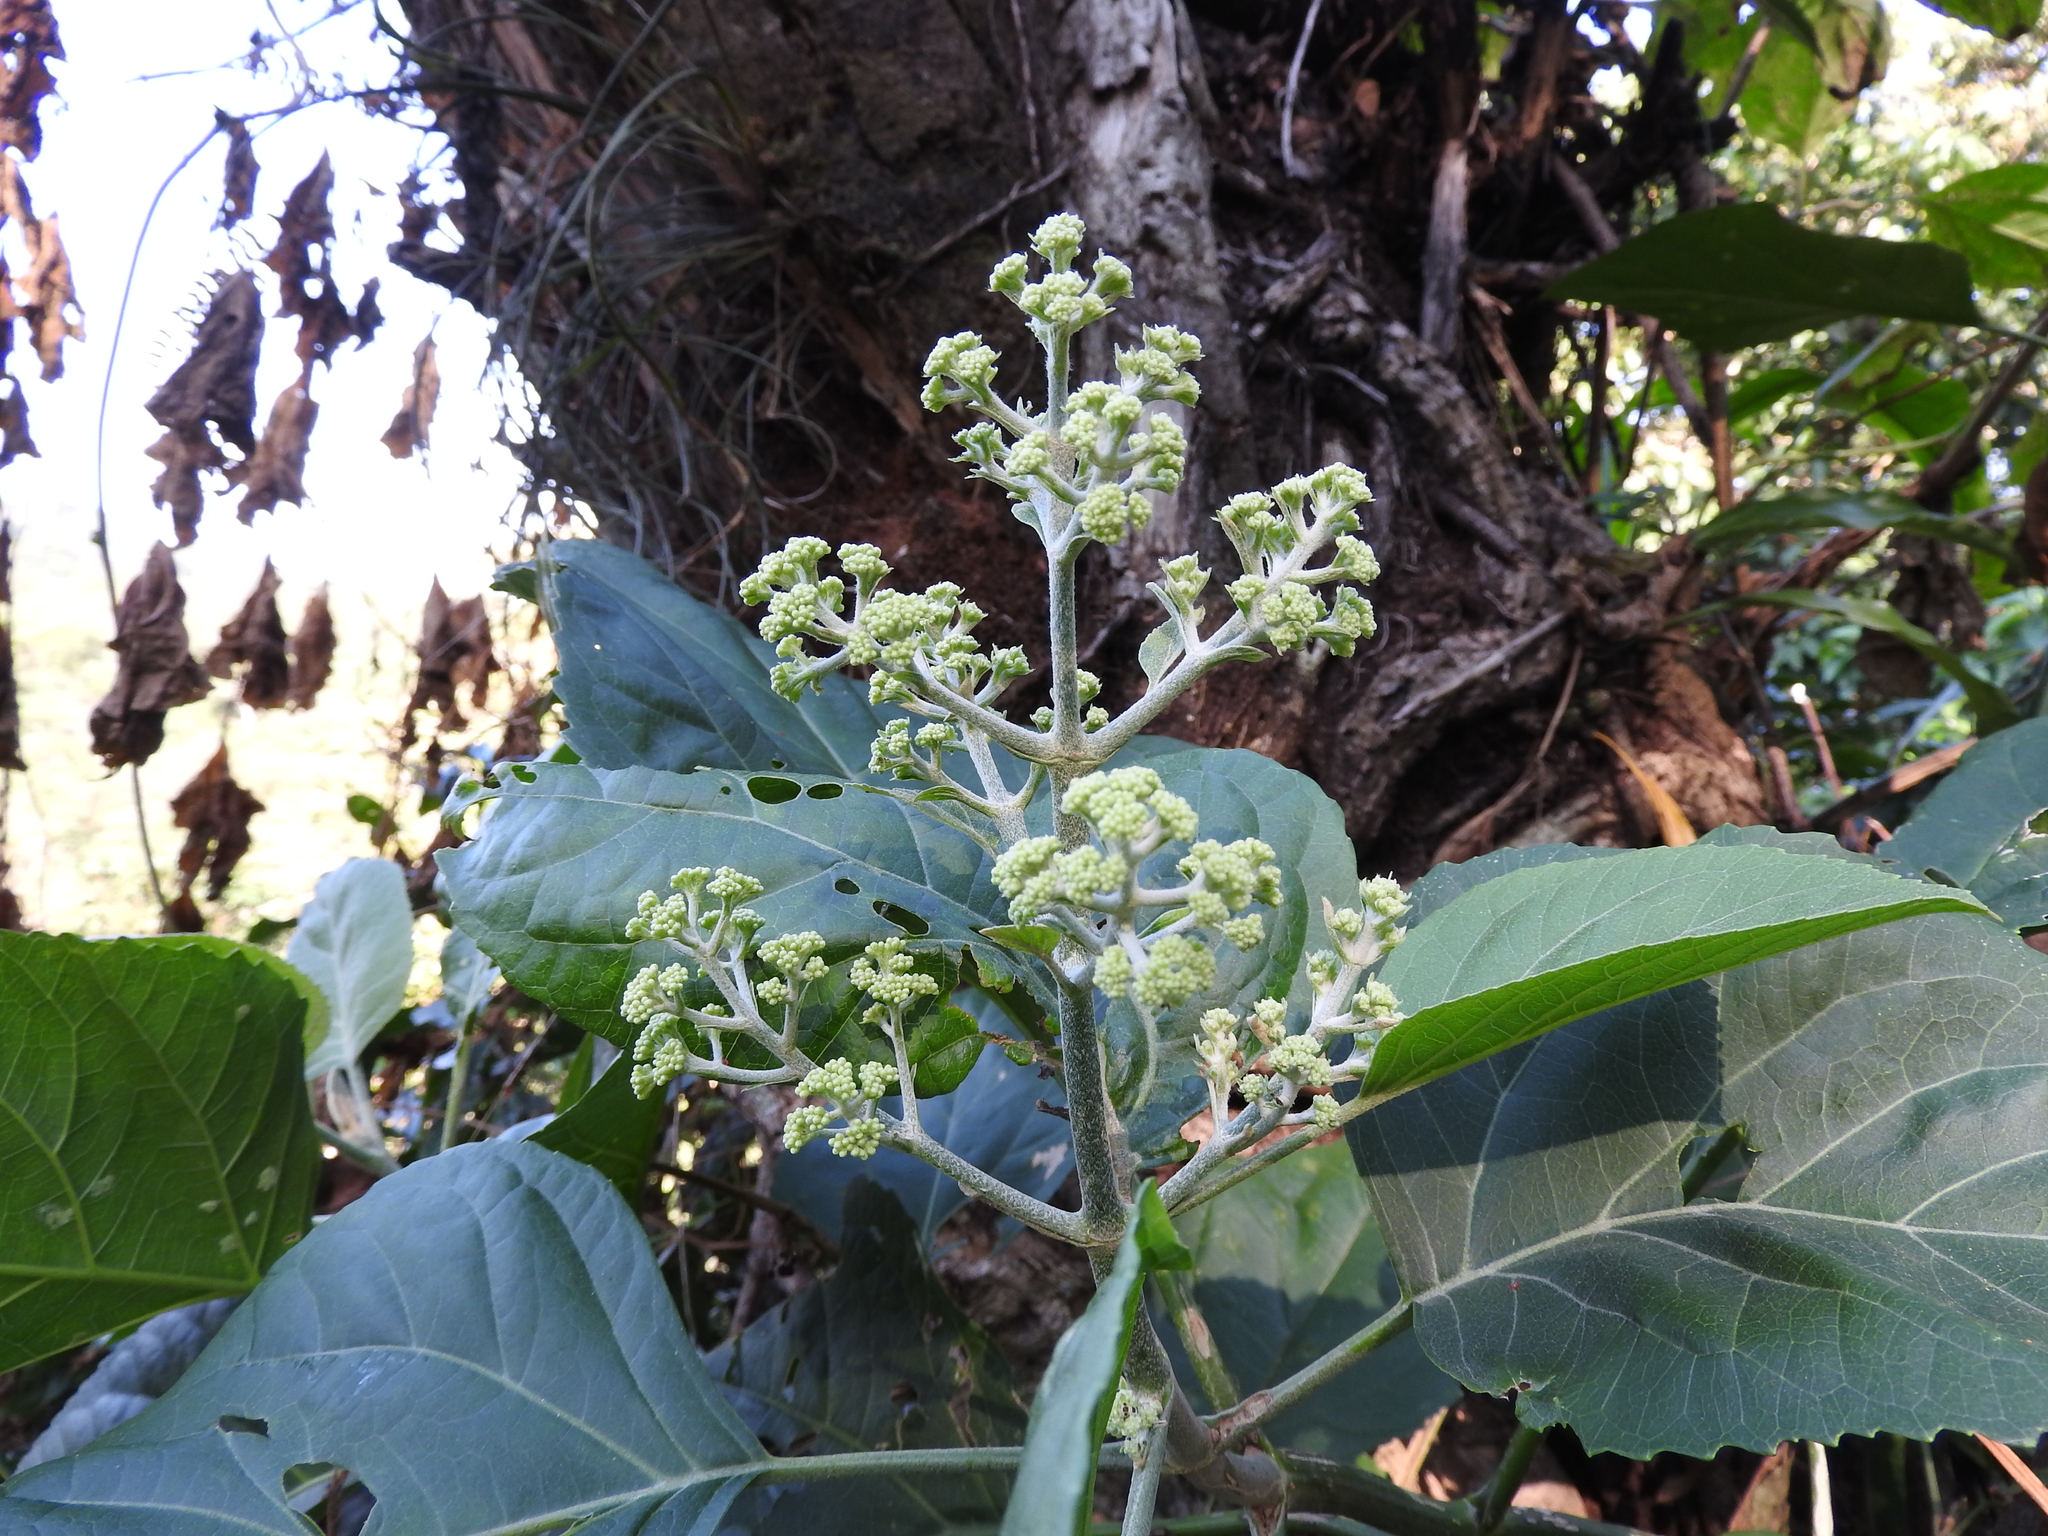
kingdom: Plantae
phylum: Tracheophyta
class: Magnoliopsida
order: Asterales
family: Asteraceae
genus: Critonia
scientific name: Critonia morifolia
